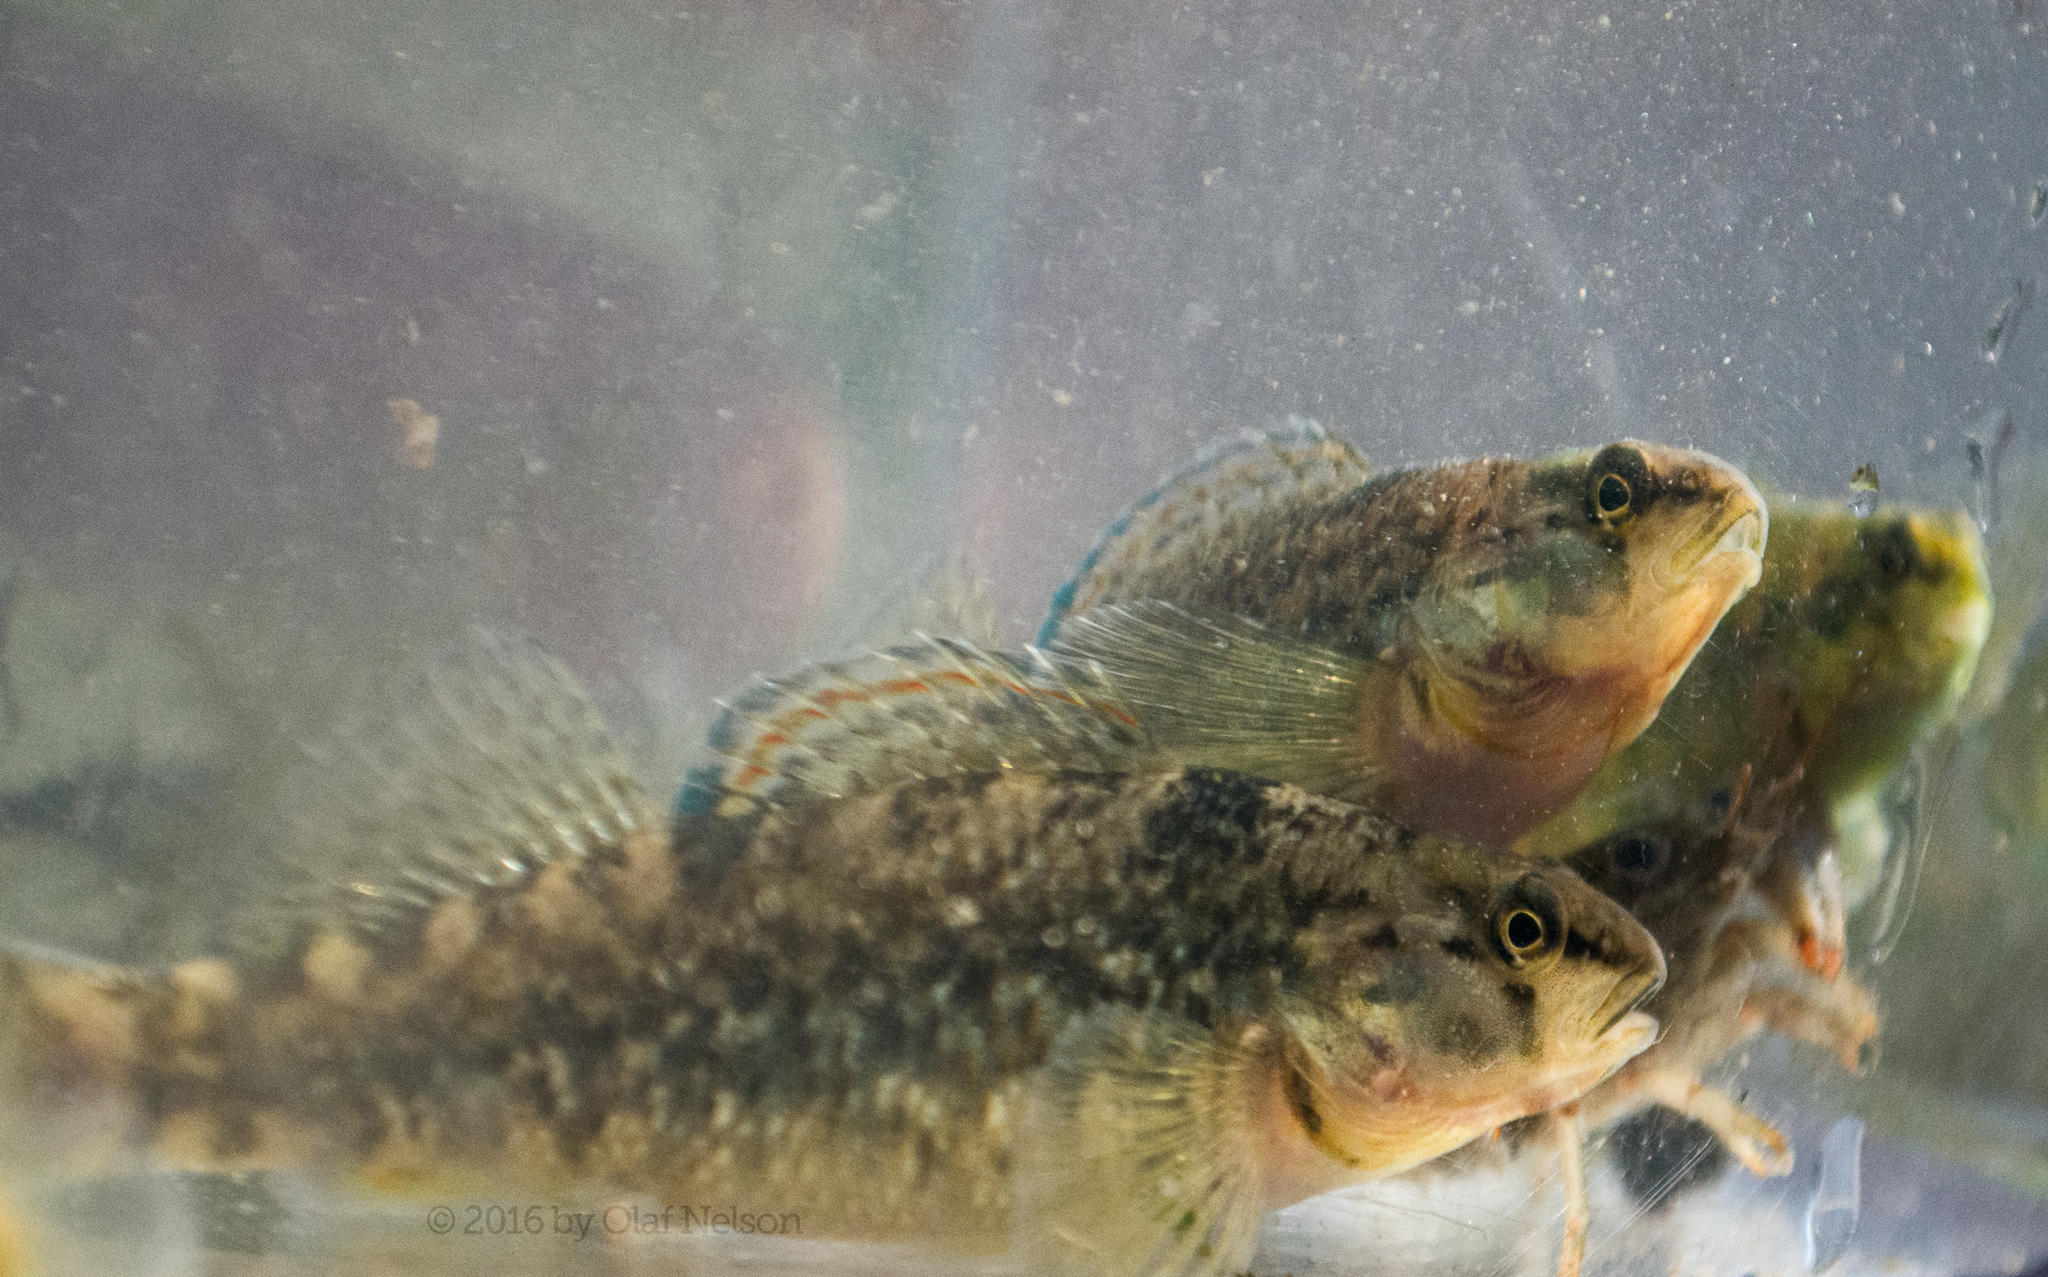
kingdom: Animalia
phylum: Chordata
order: Perciformes
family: Percidae
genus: Etheostoma
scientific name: Etheostoma caeruleum
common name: Rainbow darter
